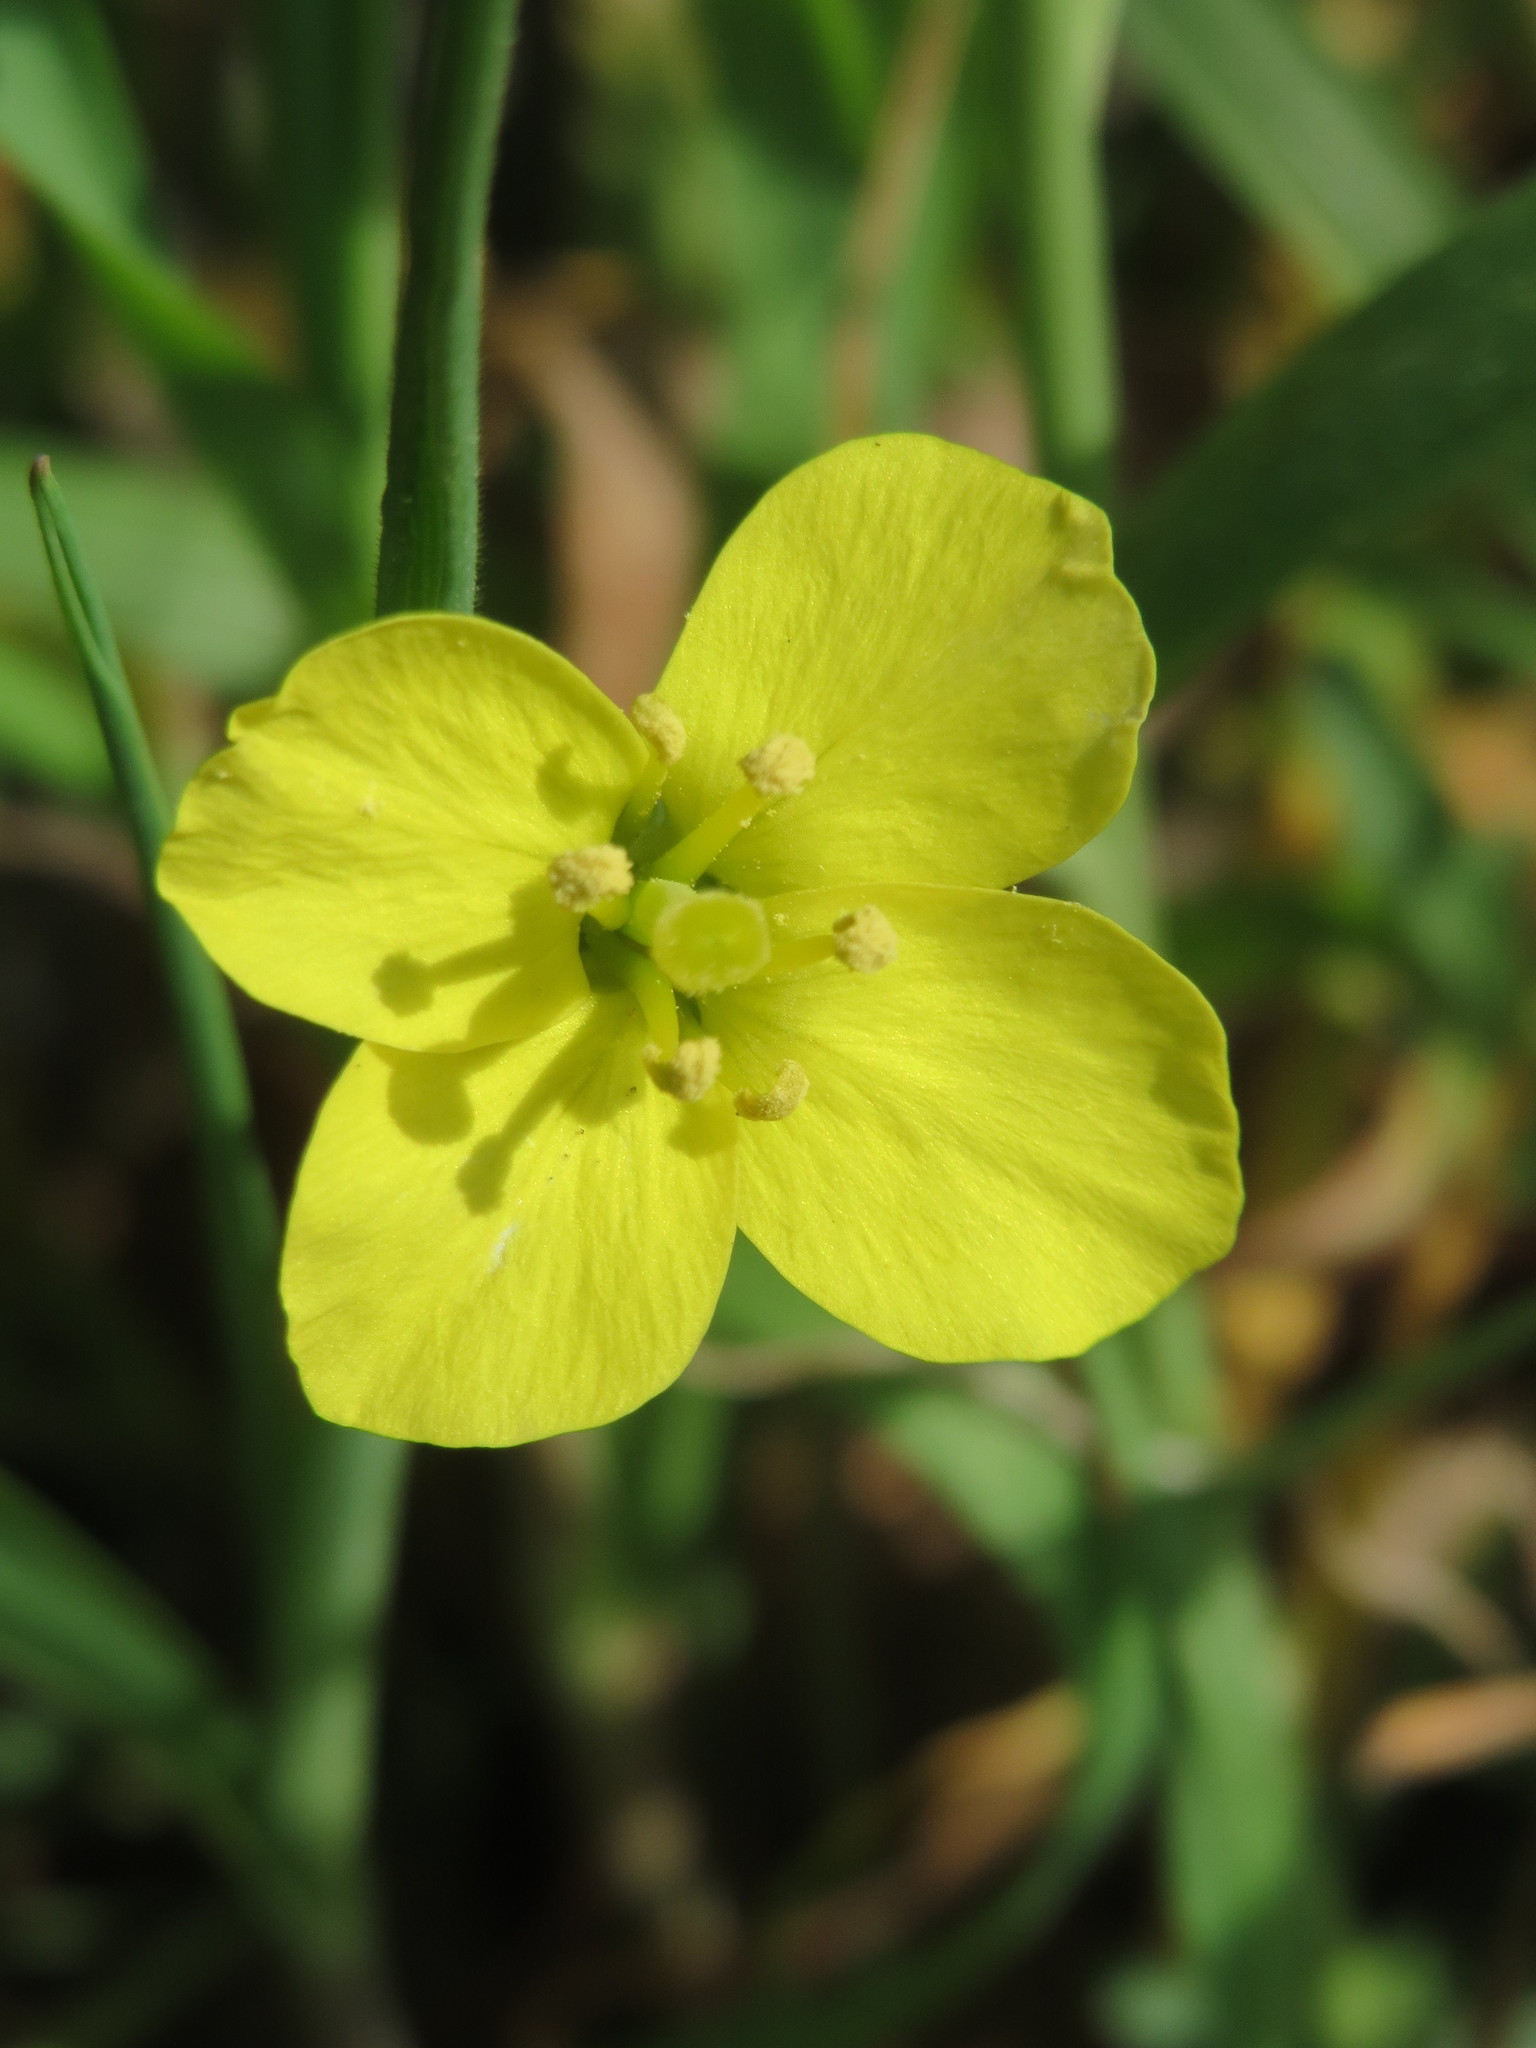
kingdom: Plantae
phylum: Tracheophyta
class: Magnoliopsida
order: Brassicales
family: Brassicaceae
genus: Diplotaxis
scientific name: Diplotaxis tenuifolia
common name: Perennial wall-rocket
